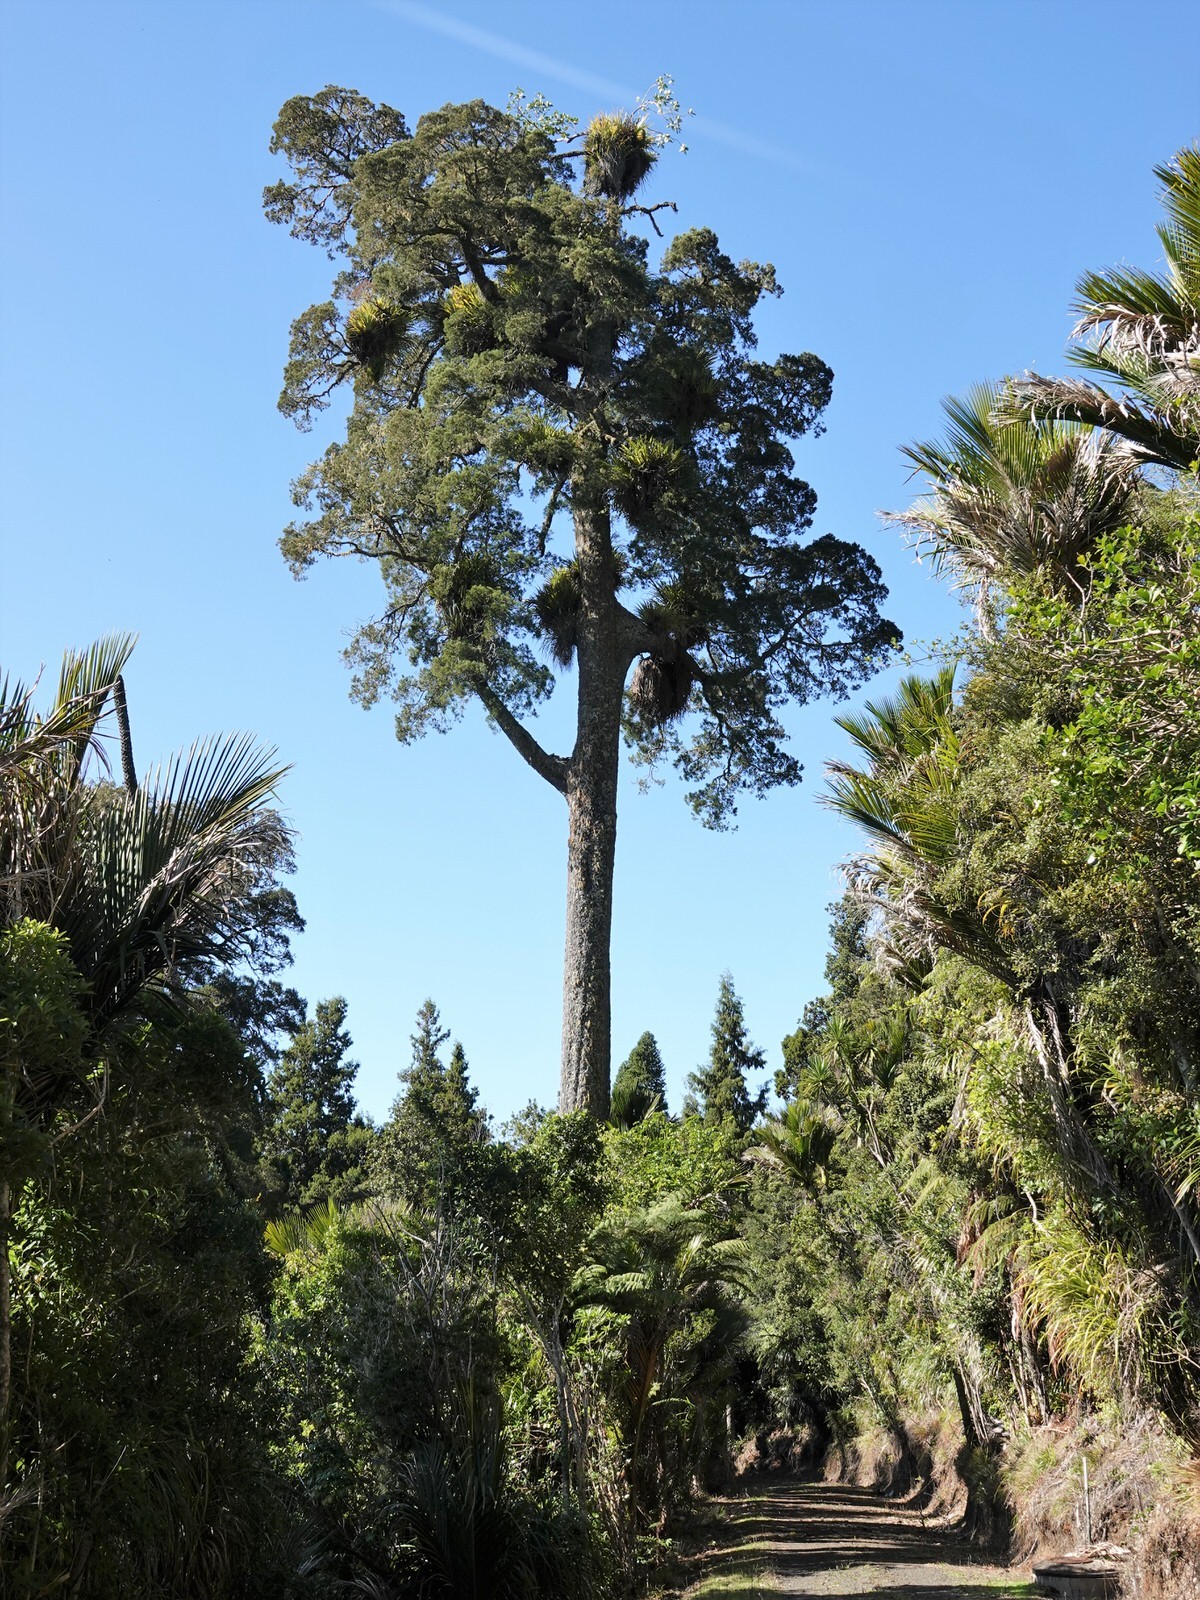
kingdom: Plantae
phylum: Tracheophyta
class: Liliopsida
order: Asparagales
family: Asteliaceae
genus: Astelia
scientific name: Astelia hastata
